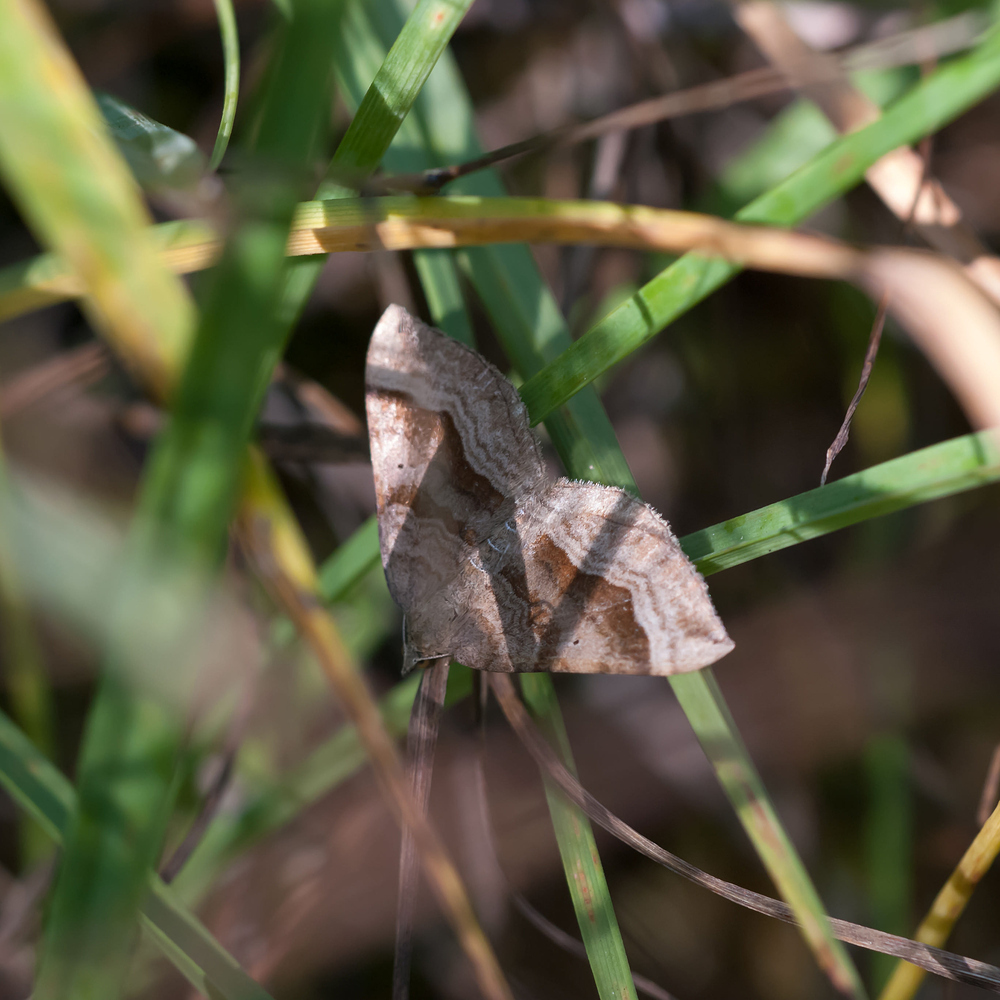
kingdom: Animalia
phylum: Arthropoda
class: Insecta
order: Lepidoptera
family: Geometridae
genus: Scotopteryx
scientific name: Scotopteryx chenopodiata
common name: Shaded broad-bar
